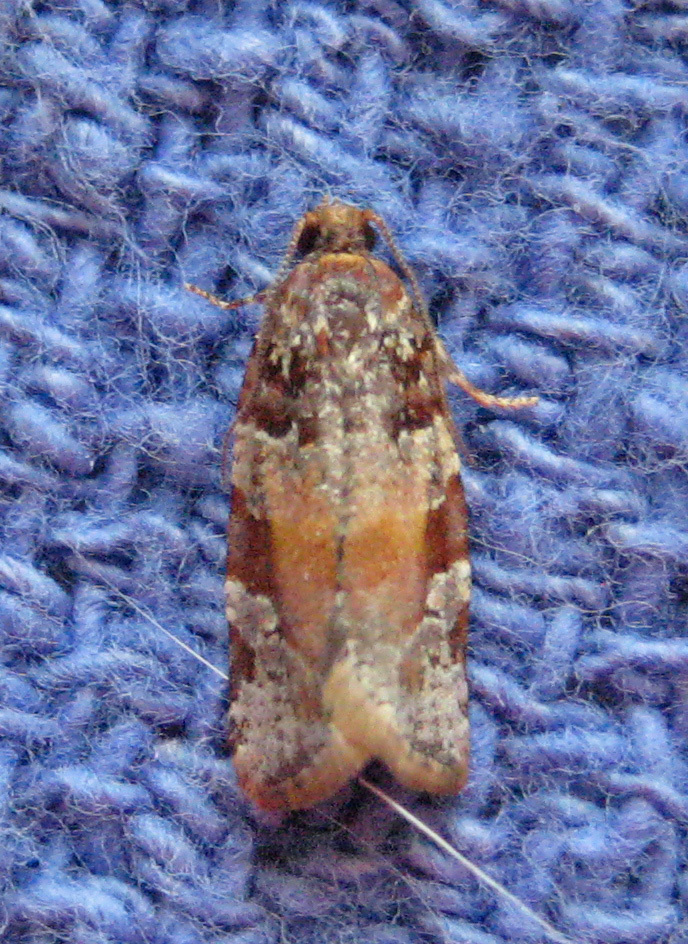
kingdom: Animalia
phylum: Arthropoda
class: Insecta
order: Lepidoptera
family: Tortricidae
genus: Argyrotaenia
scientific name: Argyrotaenia kimballi
